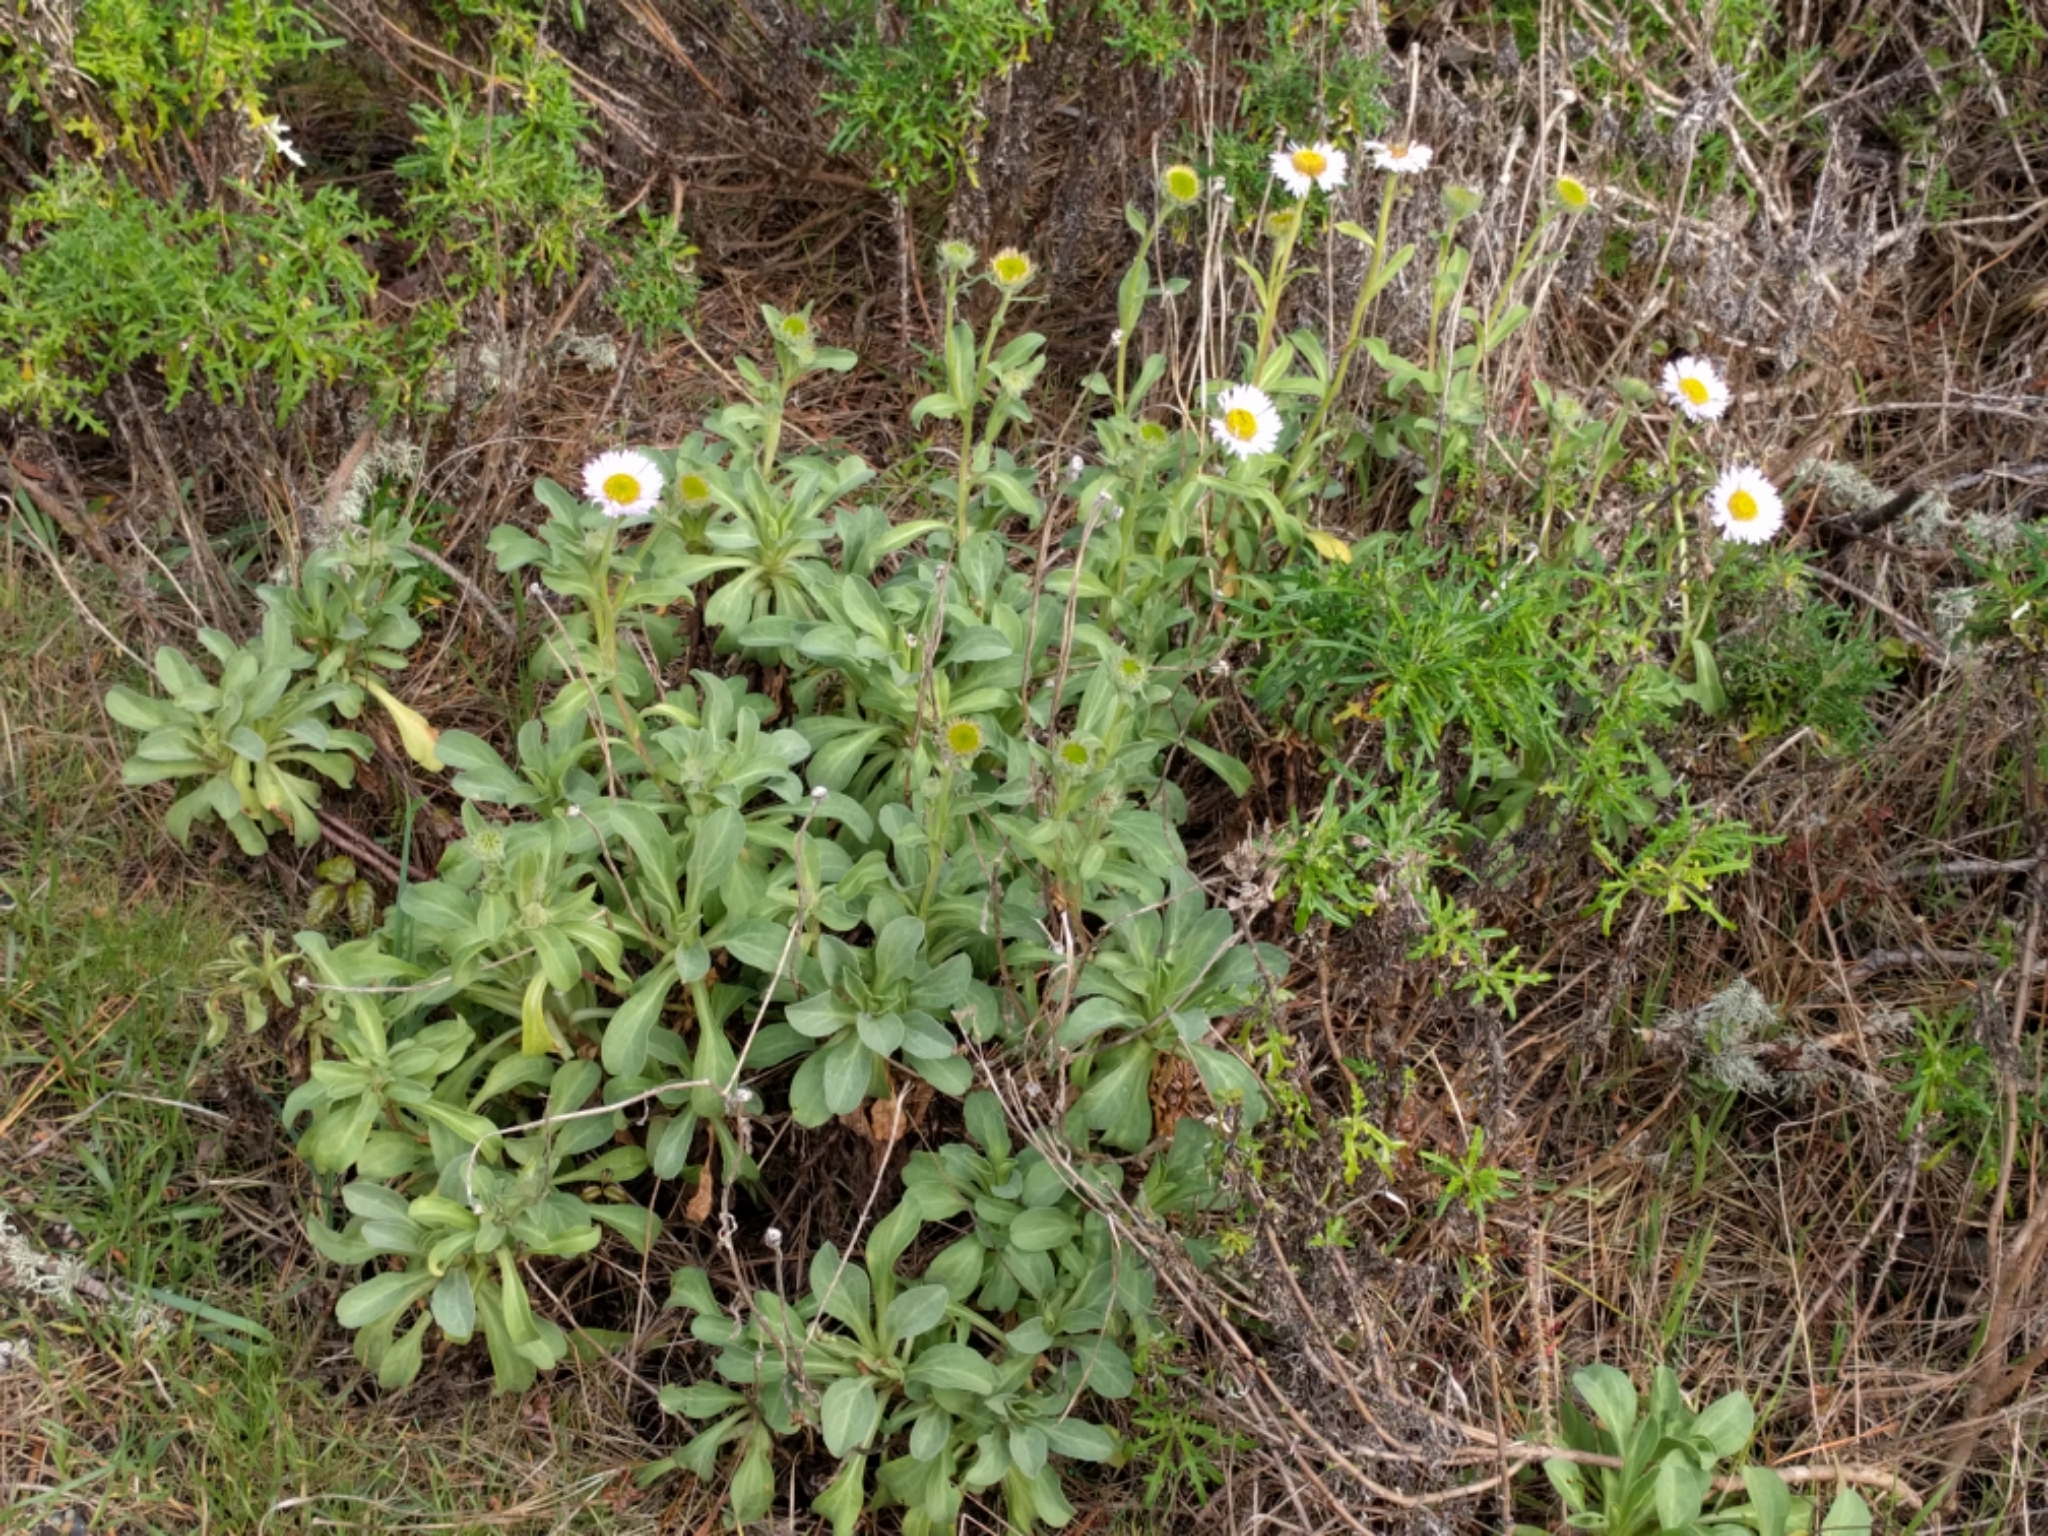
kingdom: Plantae
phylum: Tracheophyta
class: Magnoliopsida
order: Asterales
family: Asteraceae
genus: Erigeron
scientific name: Erigeron glaucus
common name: Seaside daisy
